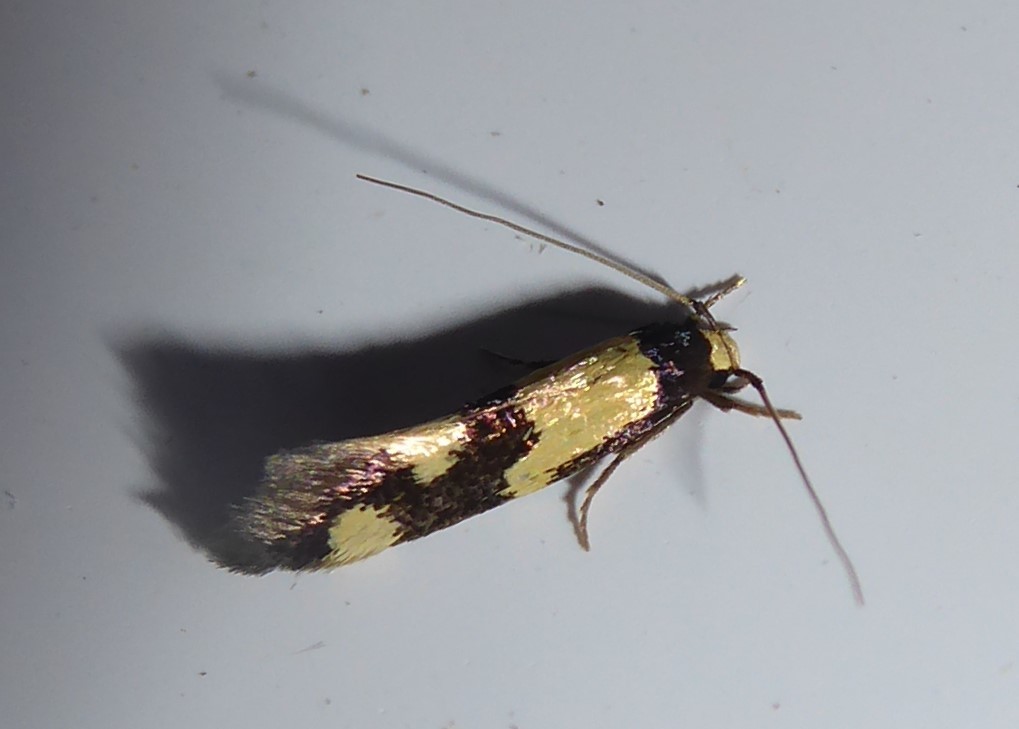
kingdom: Animalia
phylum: Arthropoda
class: Insecta
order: Lepidoptera
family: Tineidae
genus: Opogona
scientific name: Opogona comptella
